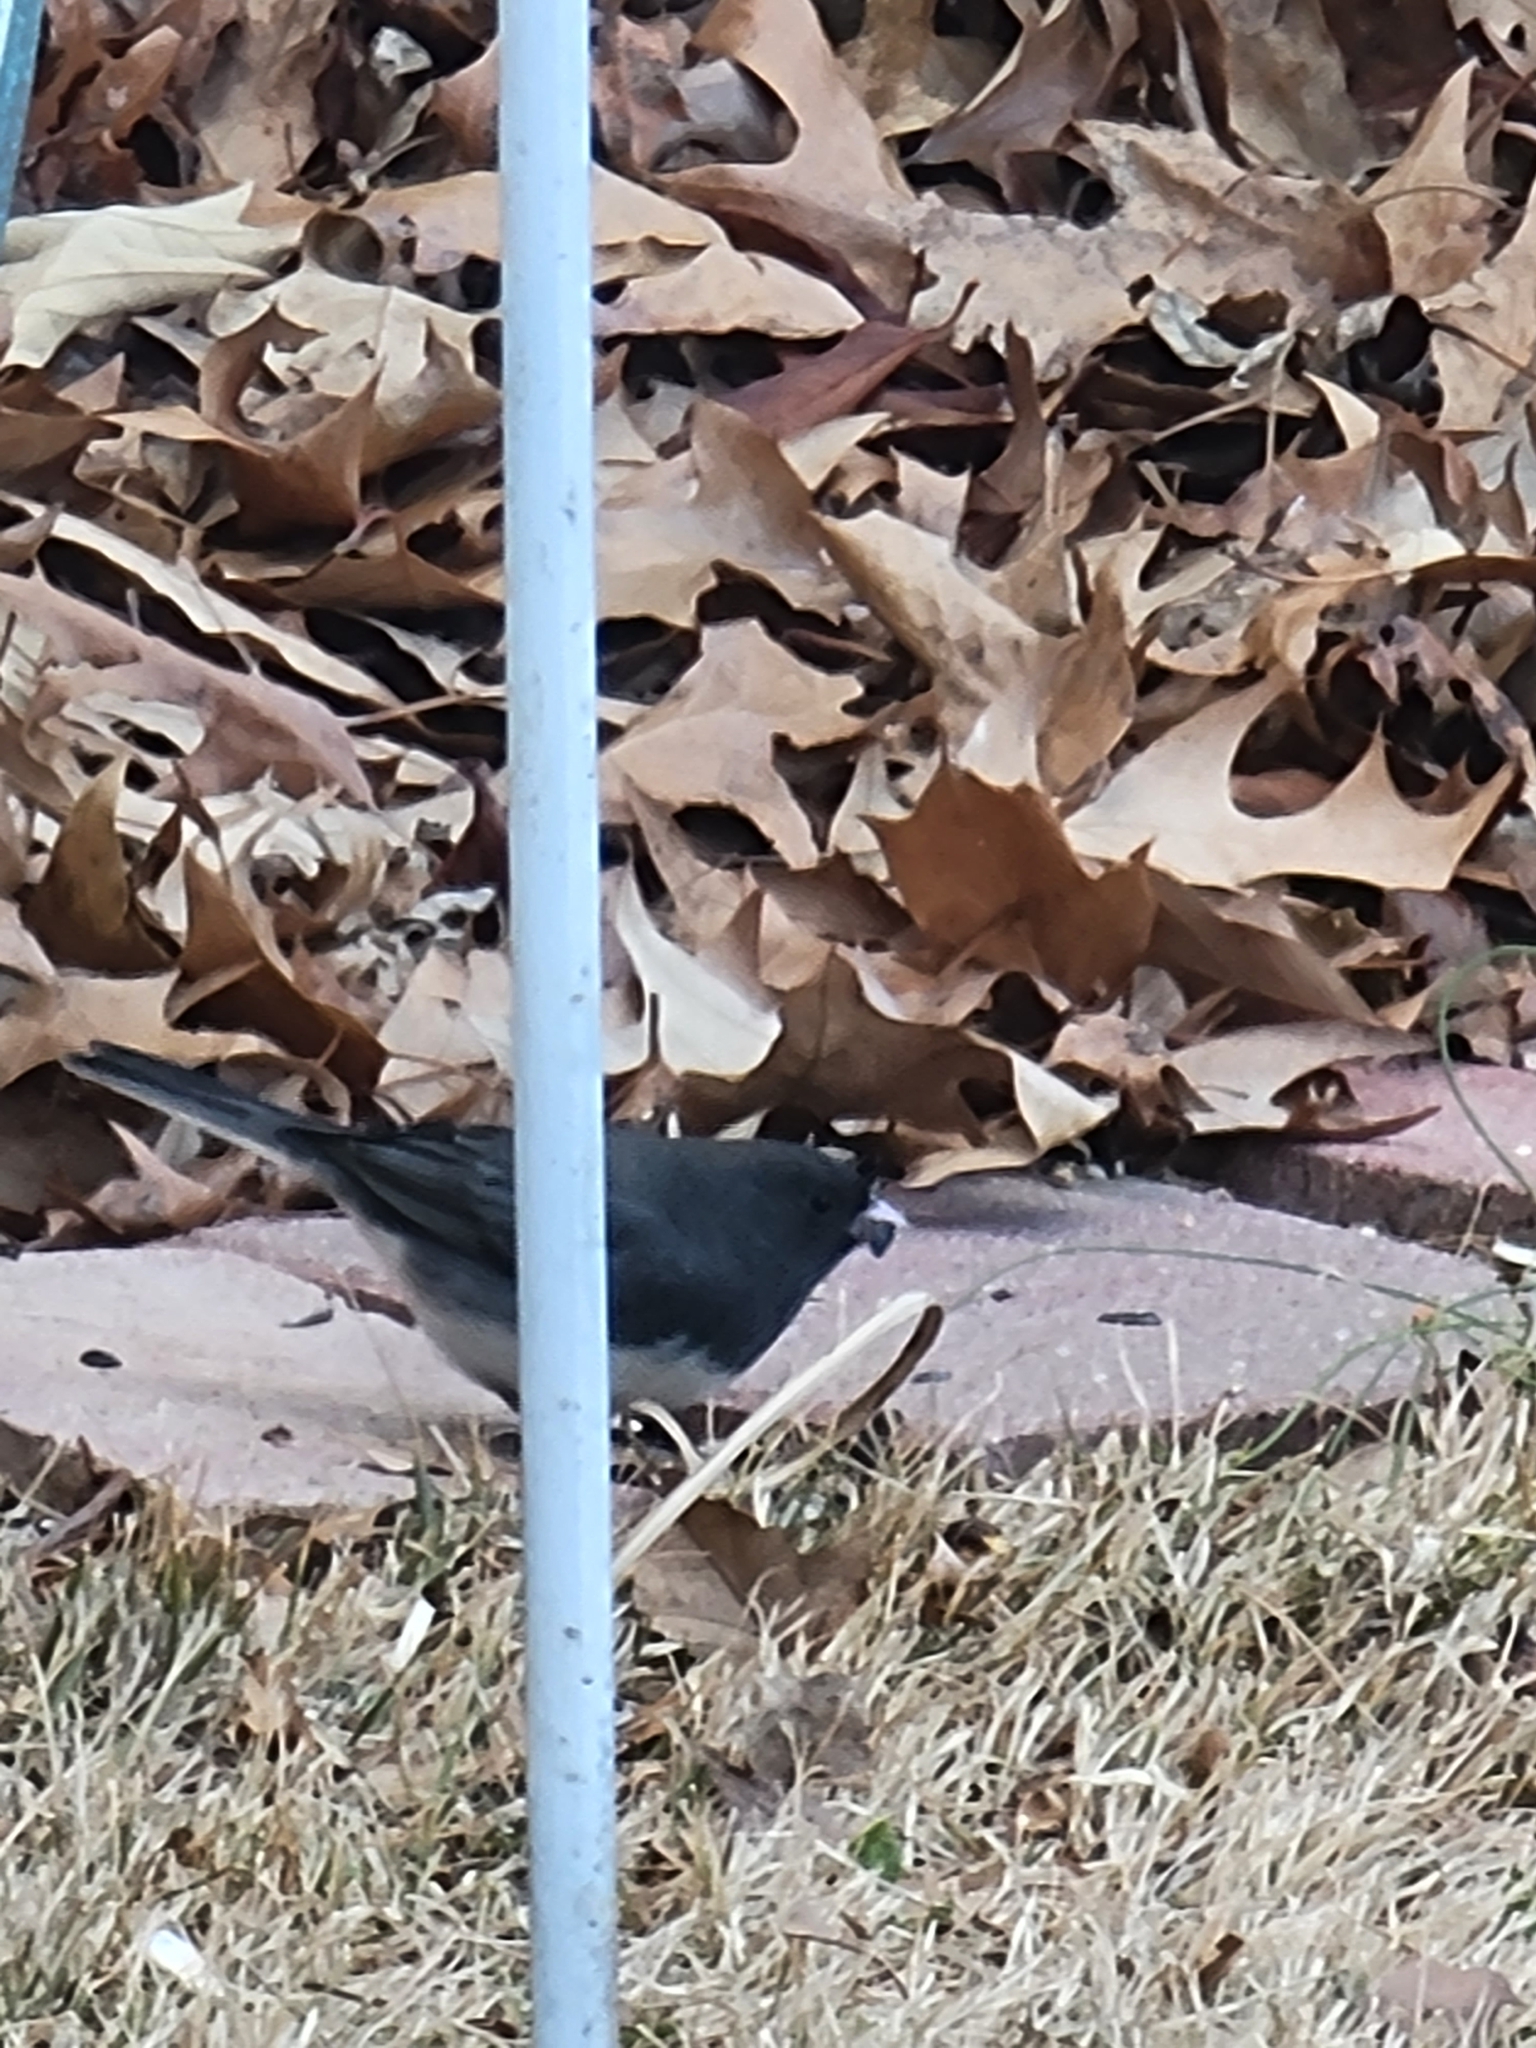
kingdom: Animalia
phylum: Chordata
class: Aves
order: Passeriformes
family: Passerellidae
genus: Junco
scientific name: Junco hyemalis
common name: Dark-eyed junco
